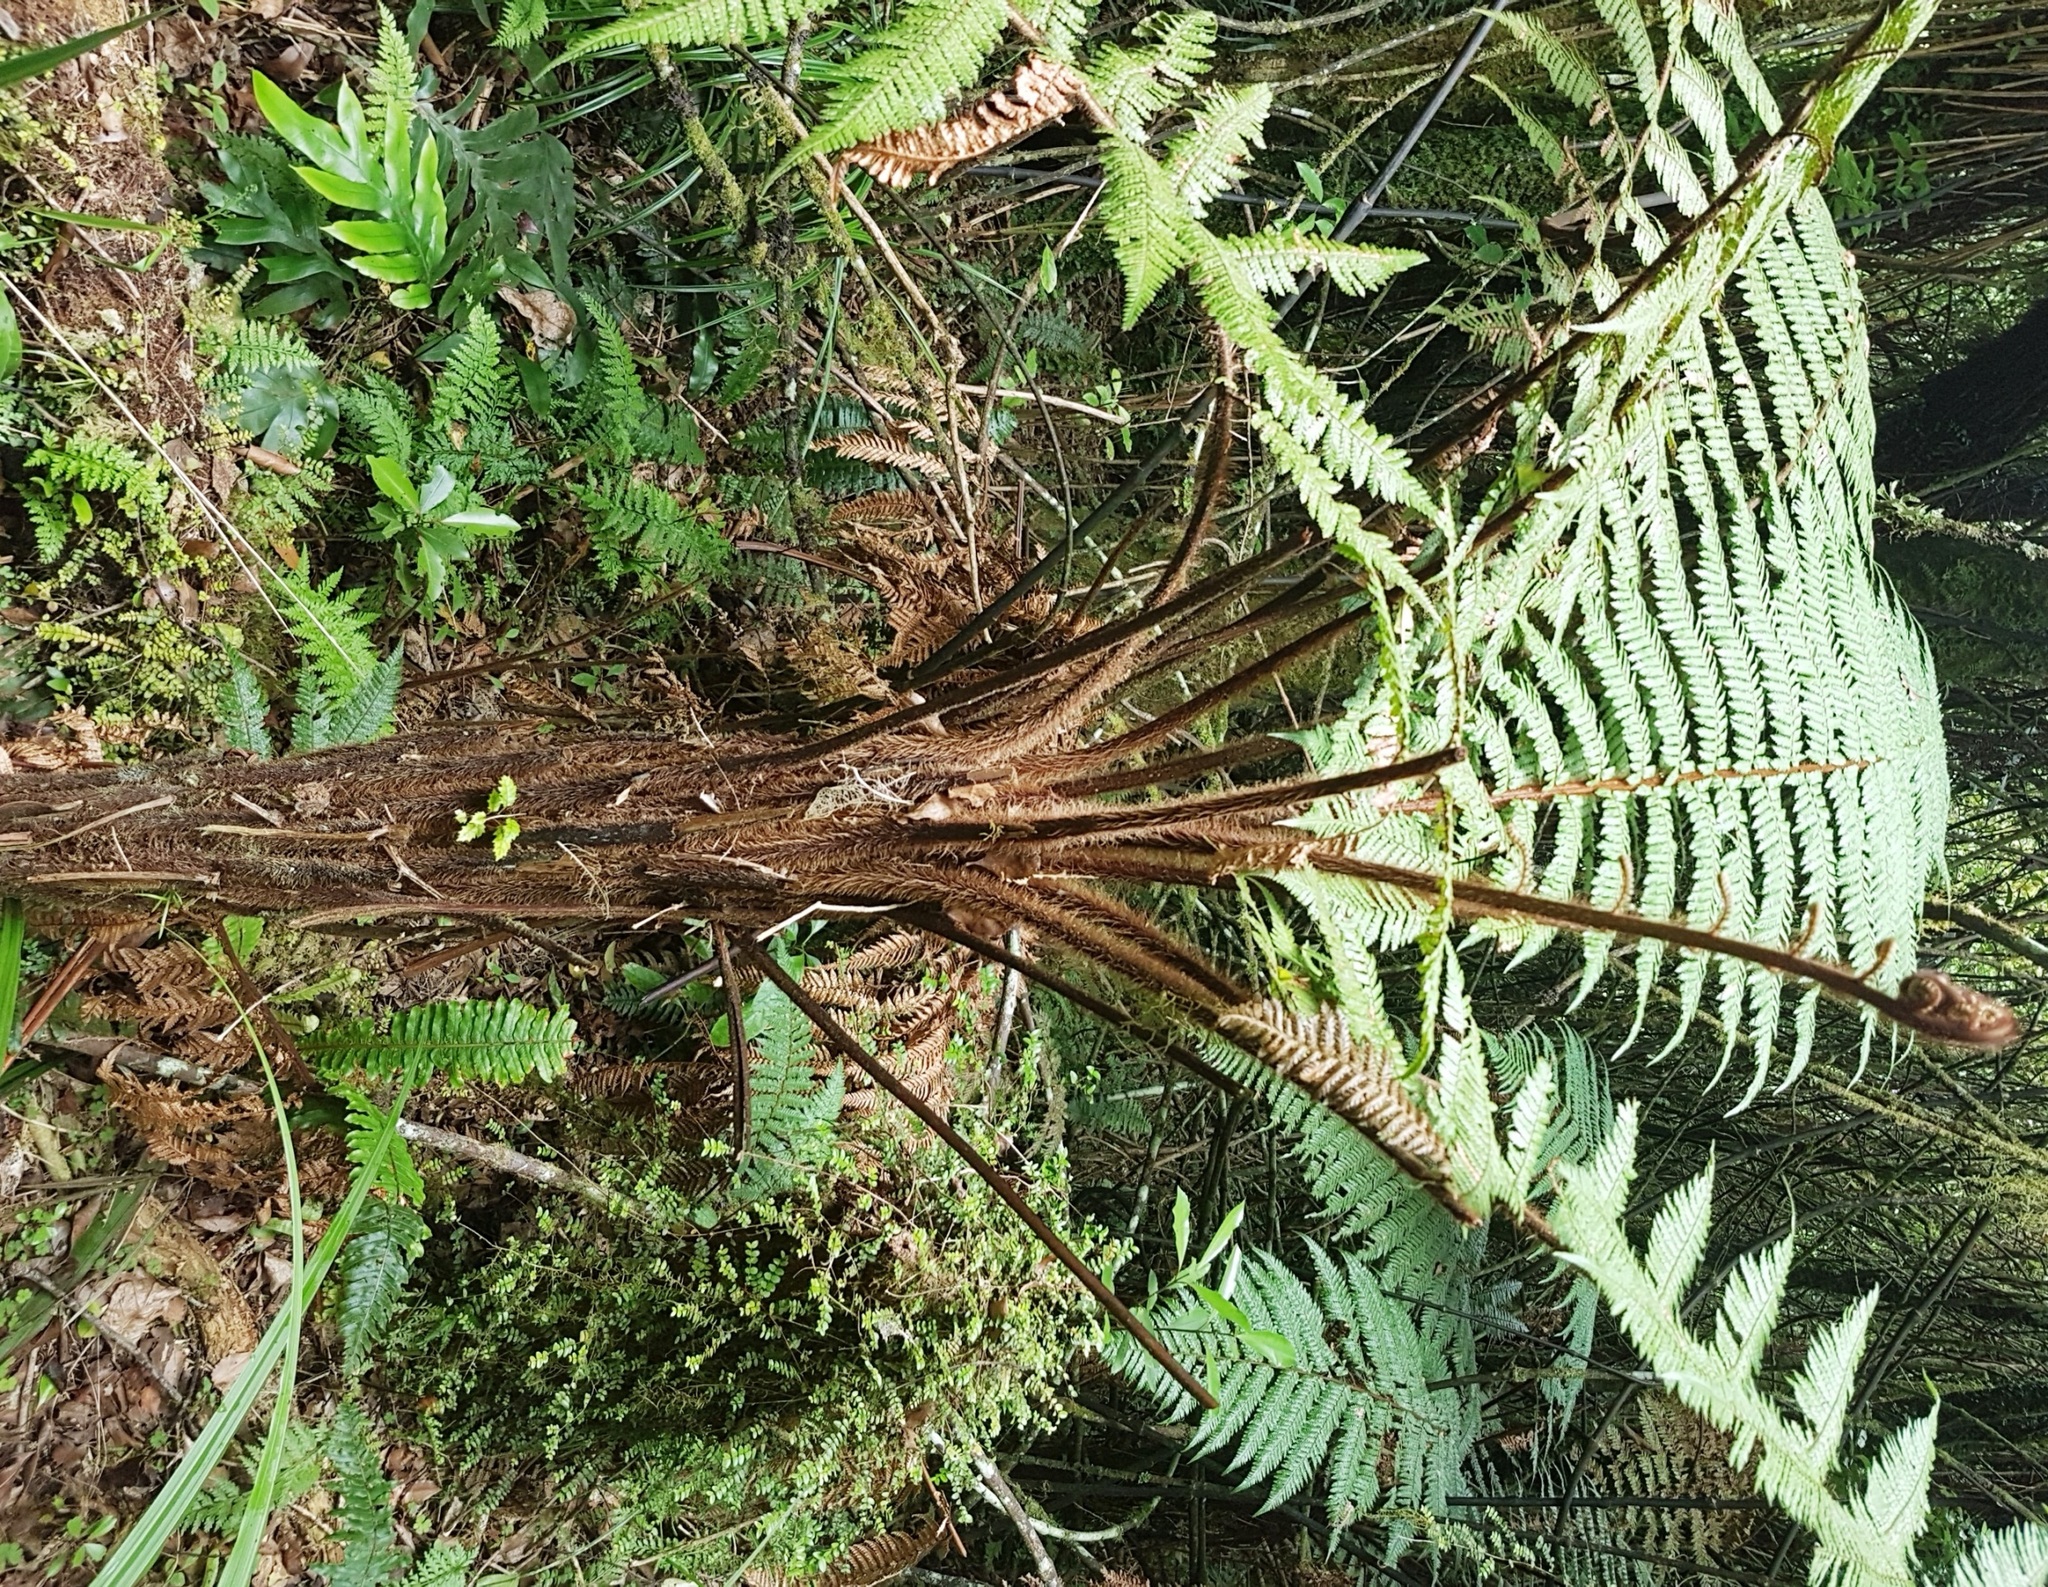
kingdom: Plantae
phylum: Tracheophyta
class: Polypodiopsida
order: Cyatheales
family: Dicksoniaceae
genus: Dicksonia
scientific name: Dicksonia squarrosa
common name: Hard treefern
